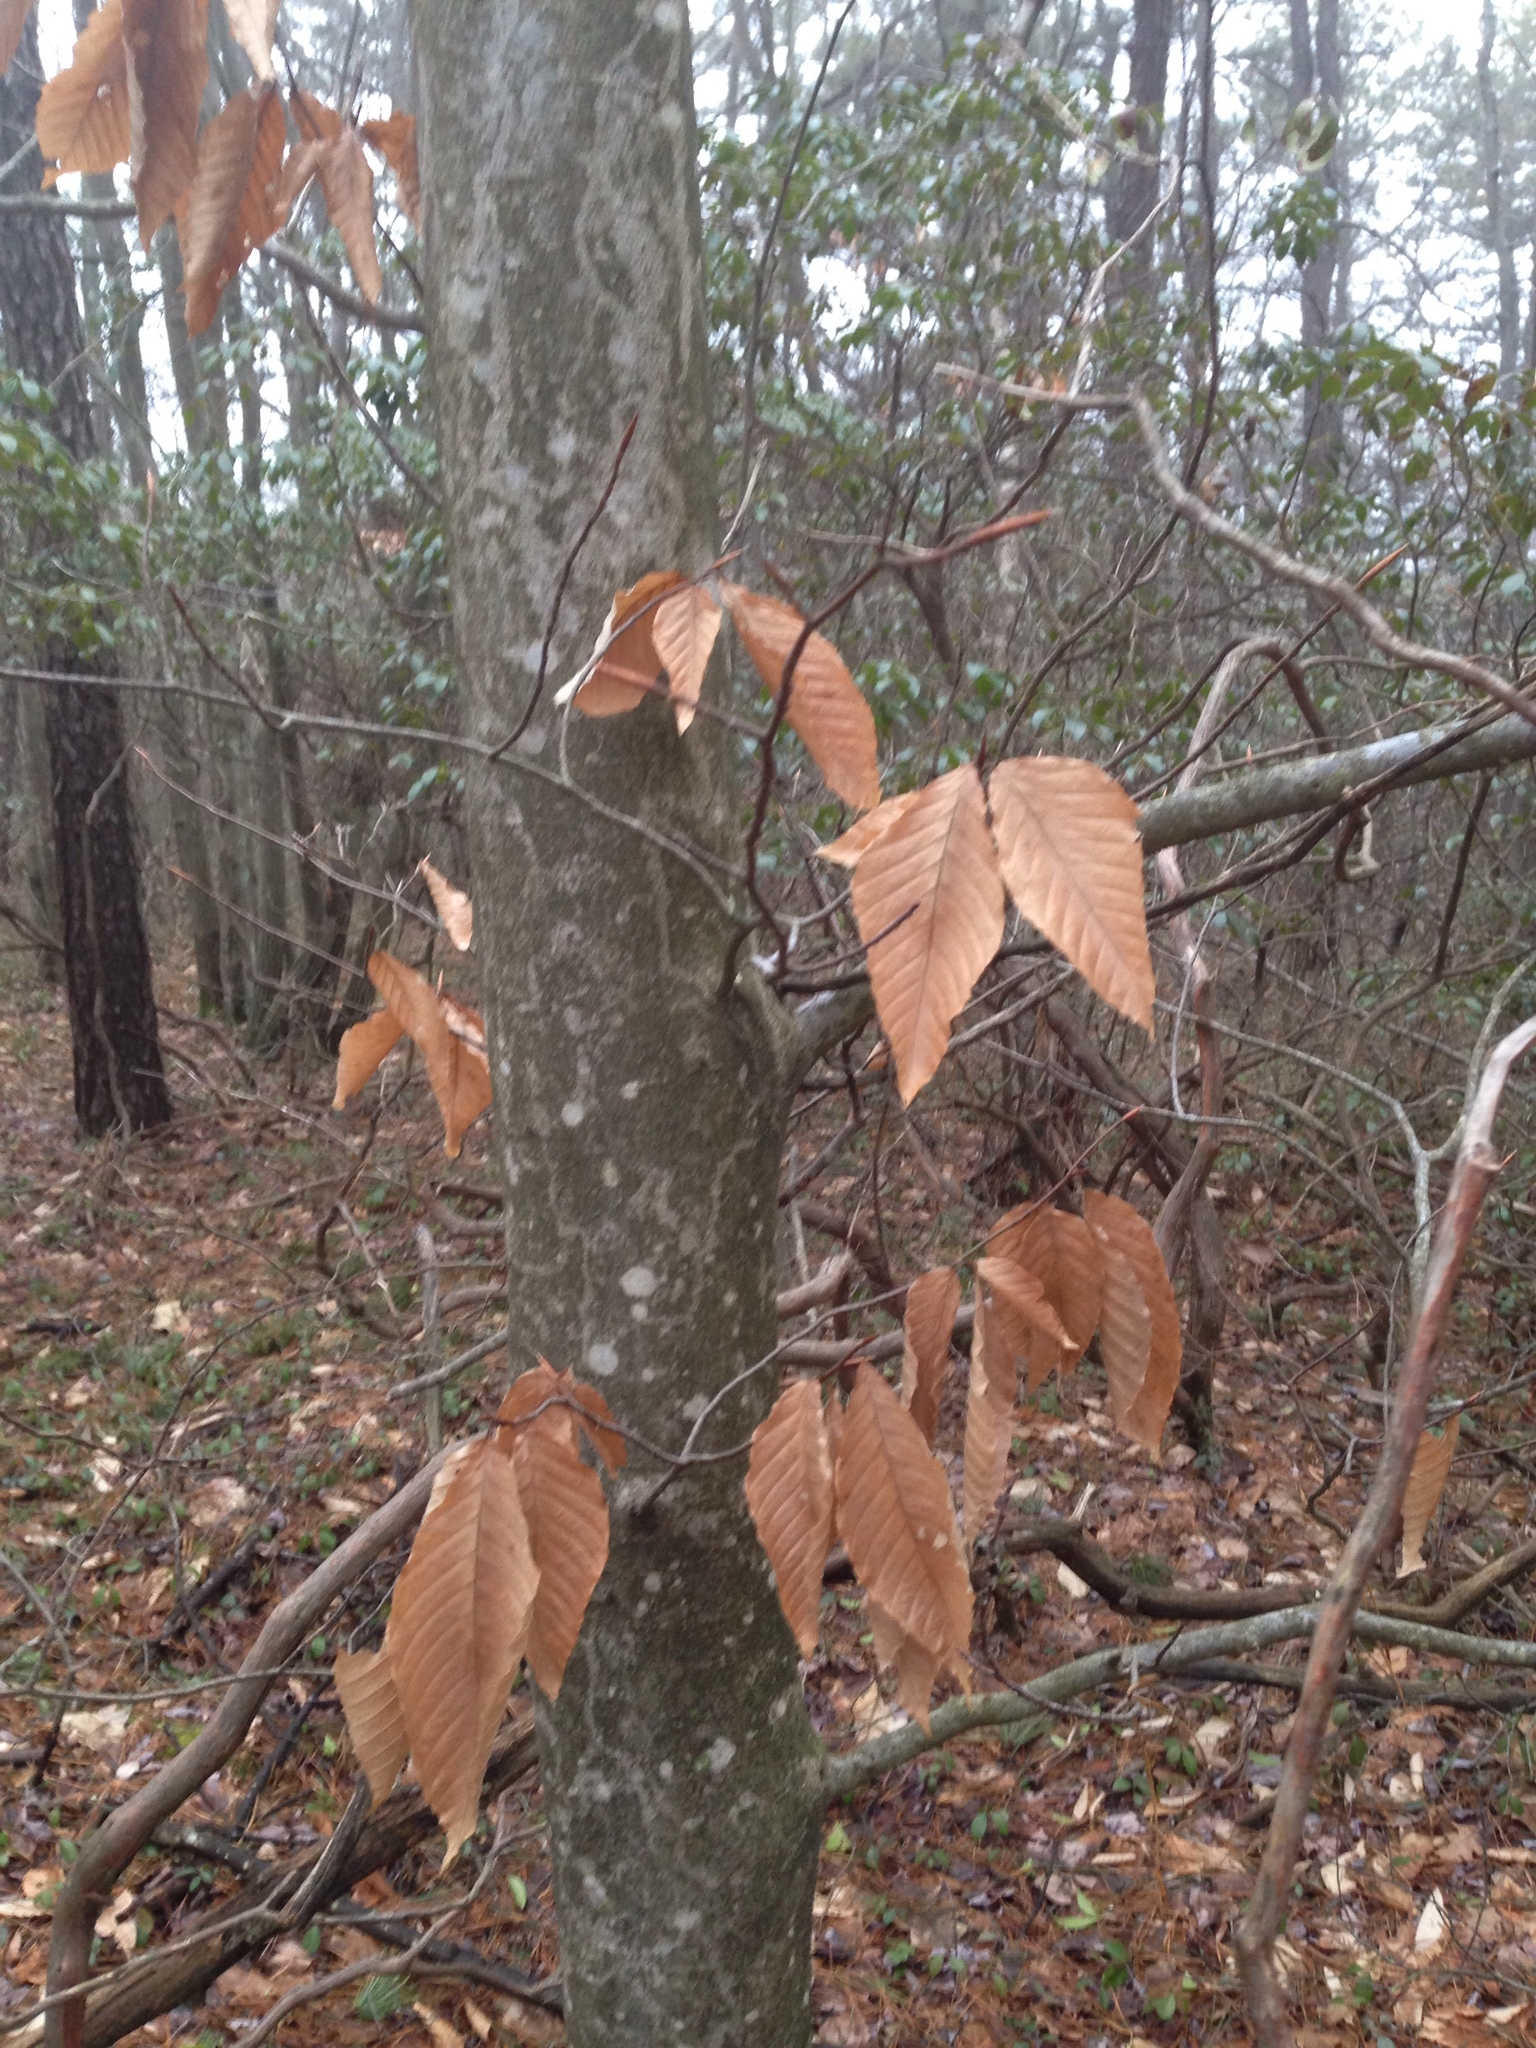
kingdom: Plantae
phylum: Tracheophyta
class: Magnoliopsida
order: Fagales
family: Fagaceae
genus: Fagus
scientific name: Fagus grandifolia
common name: American beech
